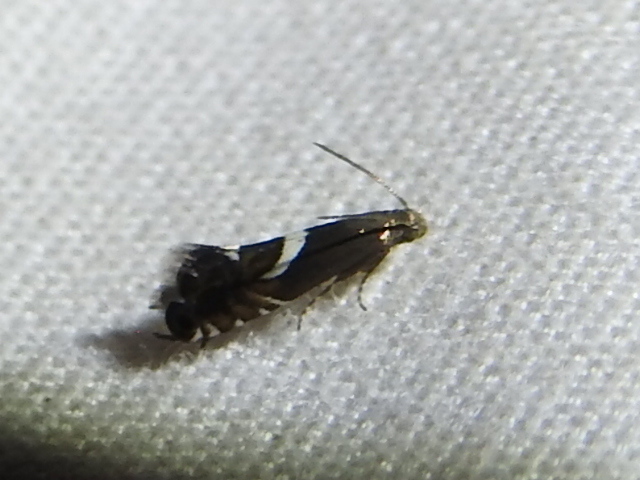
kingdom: Animalia
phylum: Arthropoda
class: Insecta
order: Lepidoptera
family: Glyphipterigidae
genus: Glyphipterix
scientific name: Glyphipterix Diploschizia impigritella
